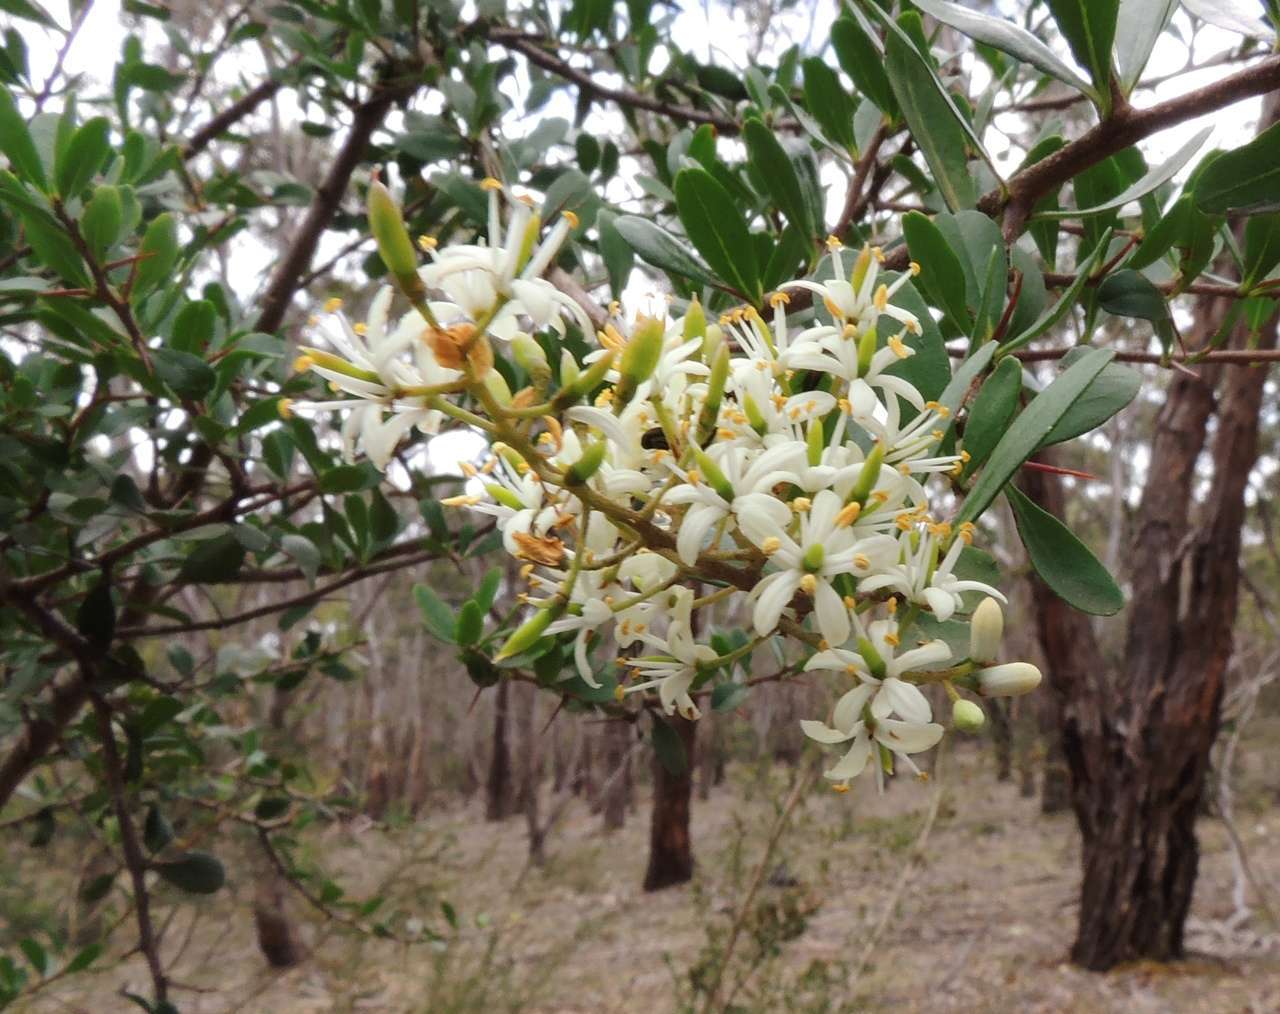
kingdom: Plantae
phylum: Tracheophyta
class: Magnoliopsida
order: Apiales
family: Pittosporaceae
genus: Bursaria
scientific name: Bursaria spinosa
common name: Australian blackthorn
